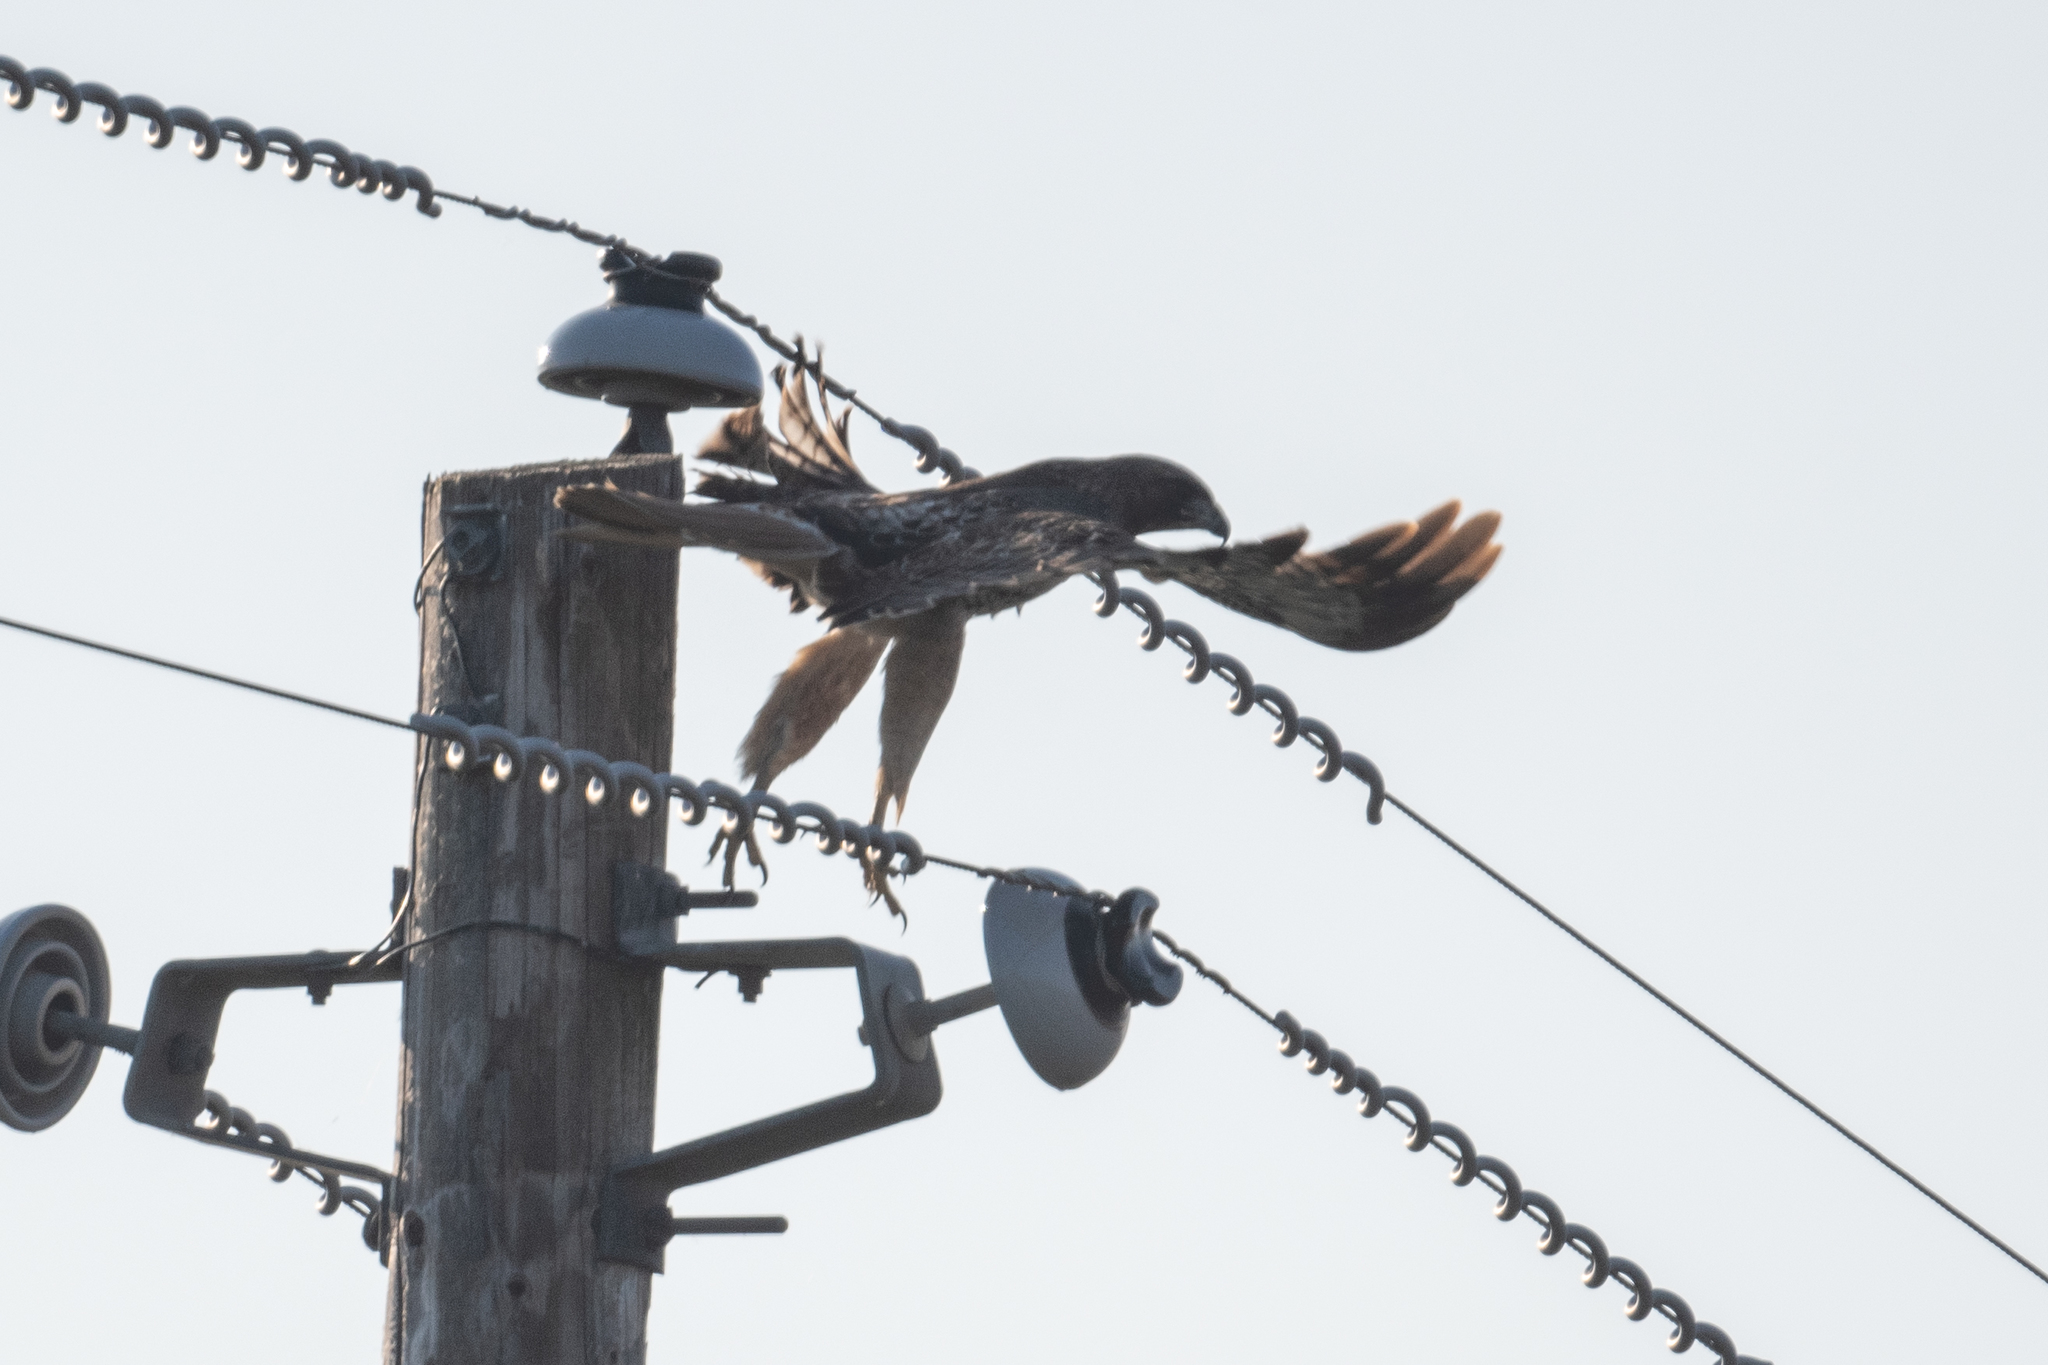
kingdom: Animalia
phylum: Chordata
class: Aves
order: Accipitriformes
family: Accipitridae
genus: Buteo
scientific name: Buteo jamaicensis
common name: Red-tailed hawk
